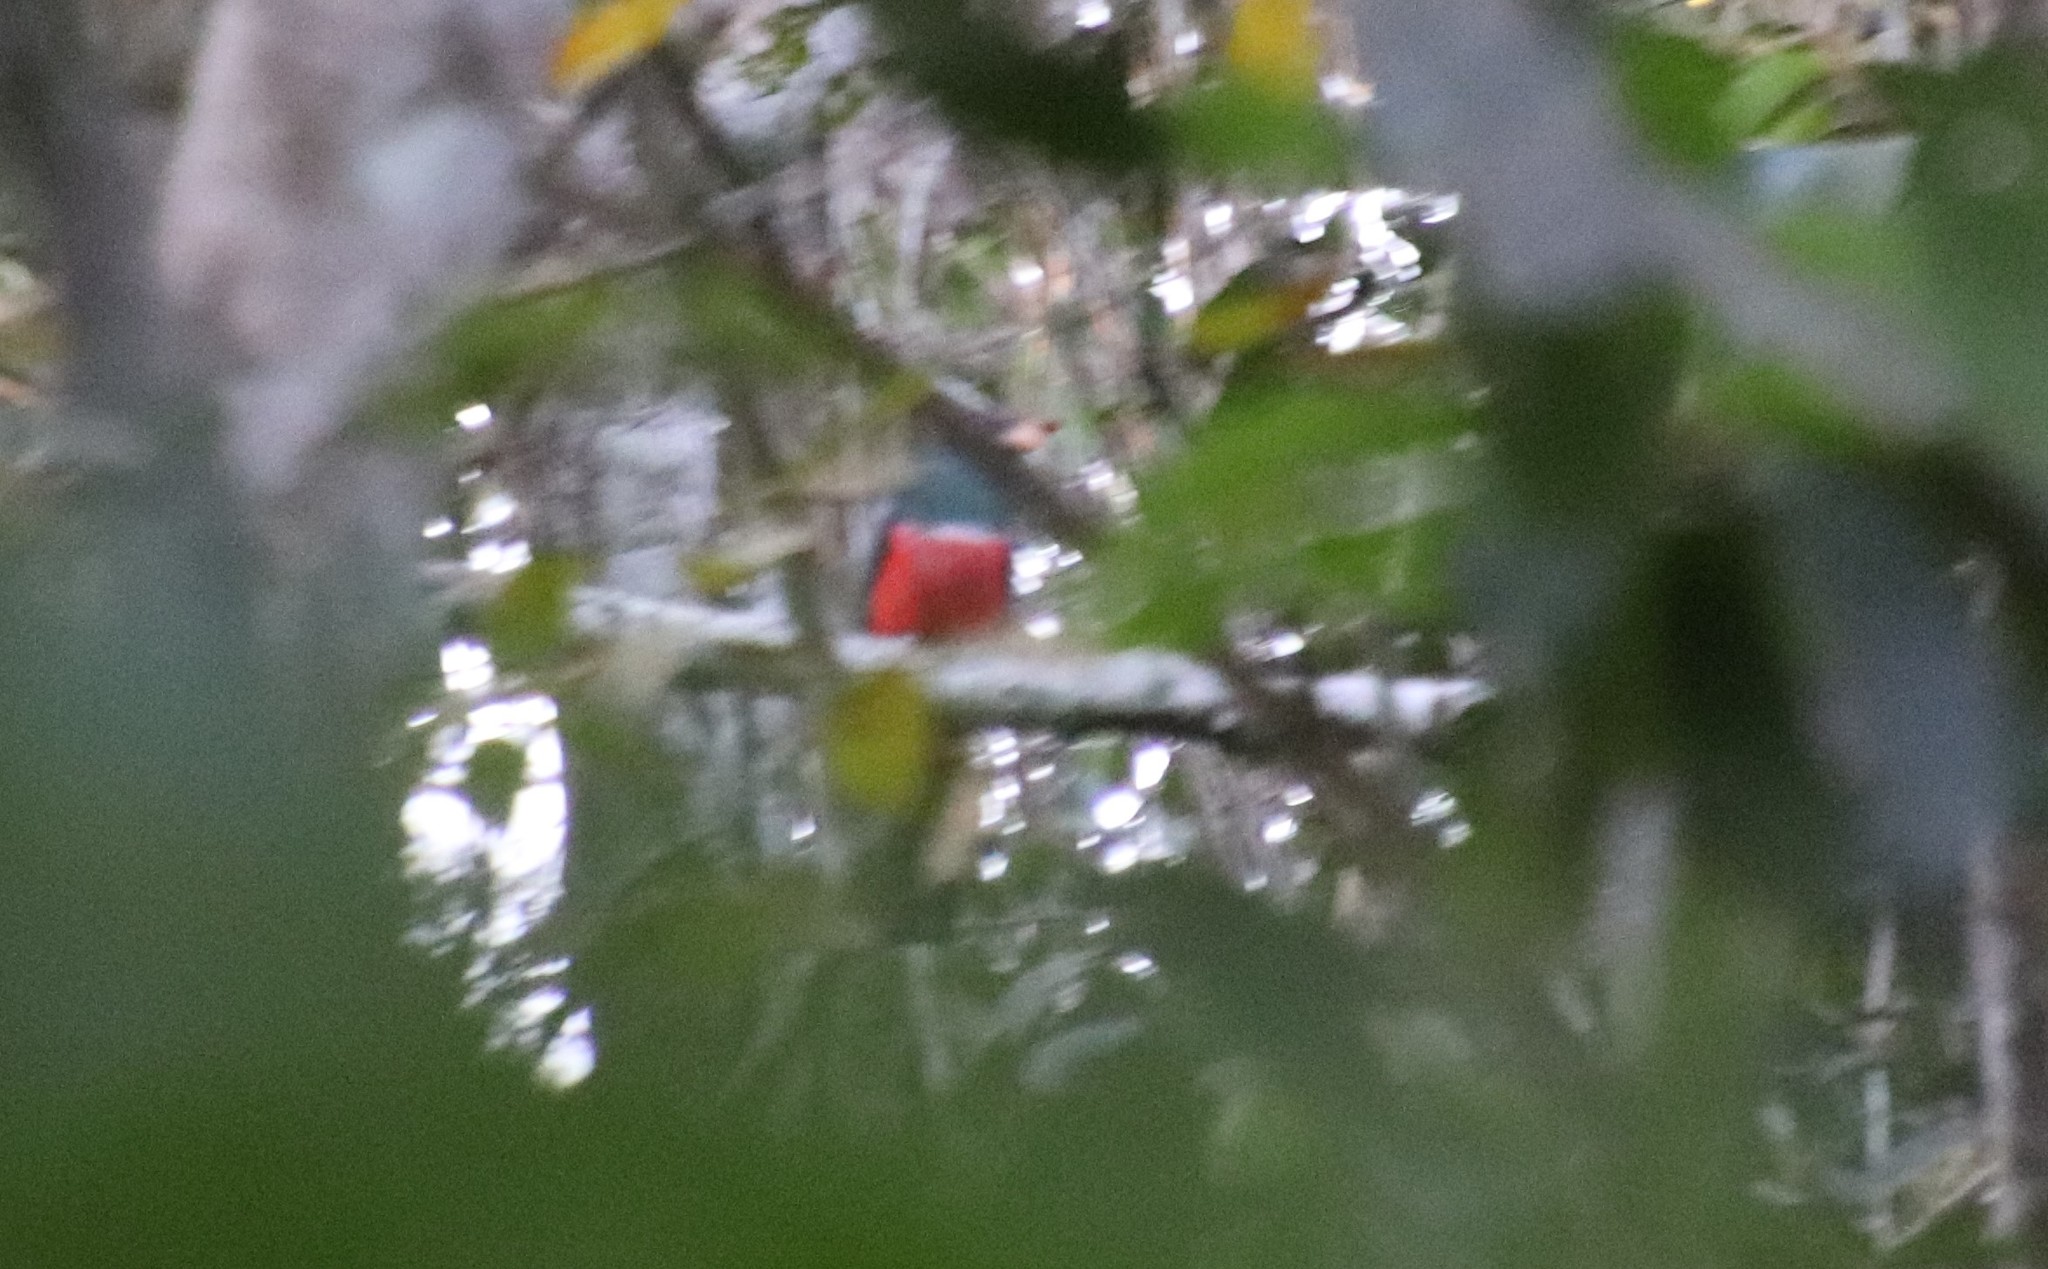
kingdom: Animalia
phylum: Chordata
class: Aves
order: Trogoniformes
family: Trogonidae
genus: Trogon
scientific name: Trogon melanurus
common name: Black-tailed trogon
